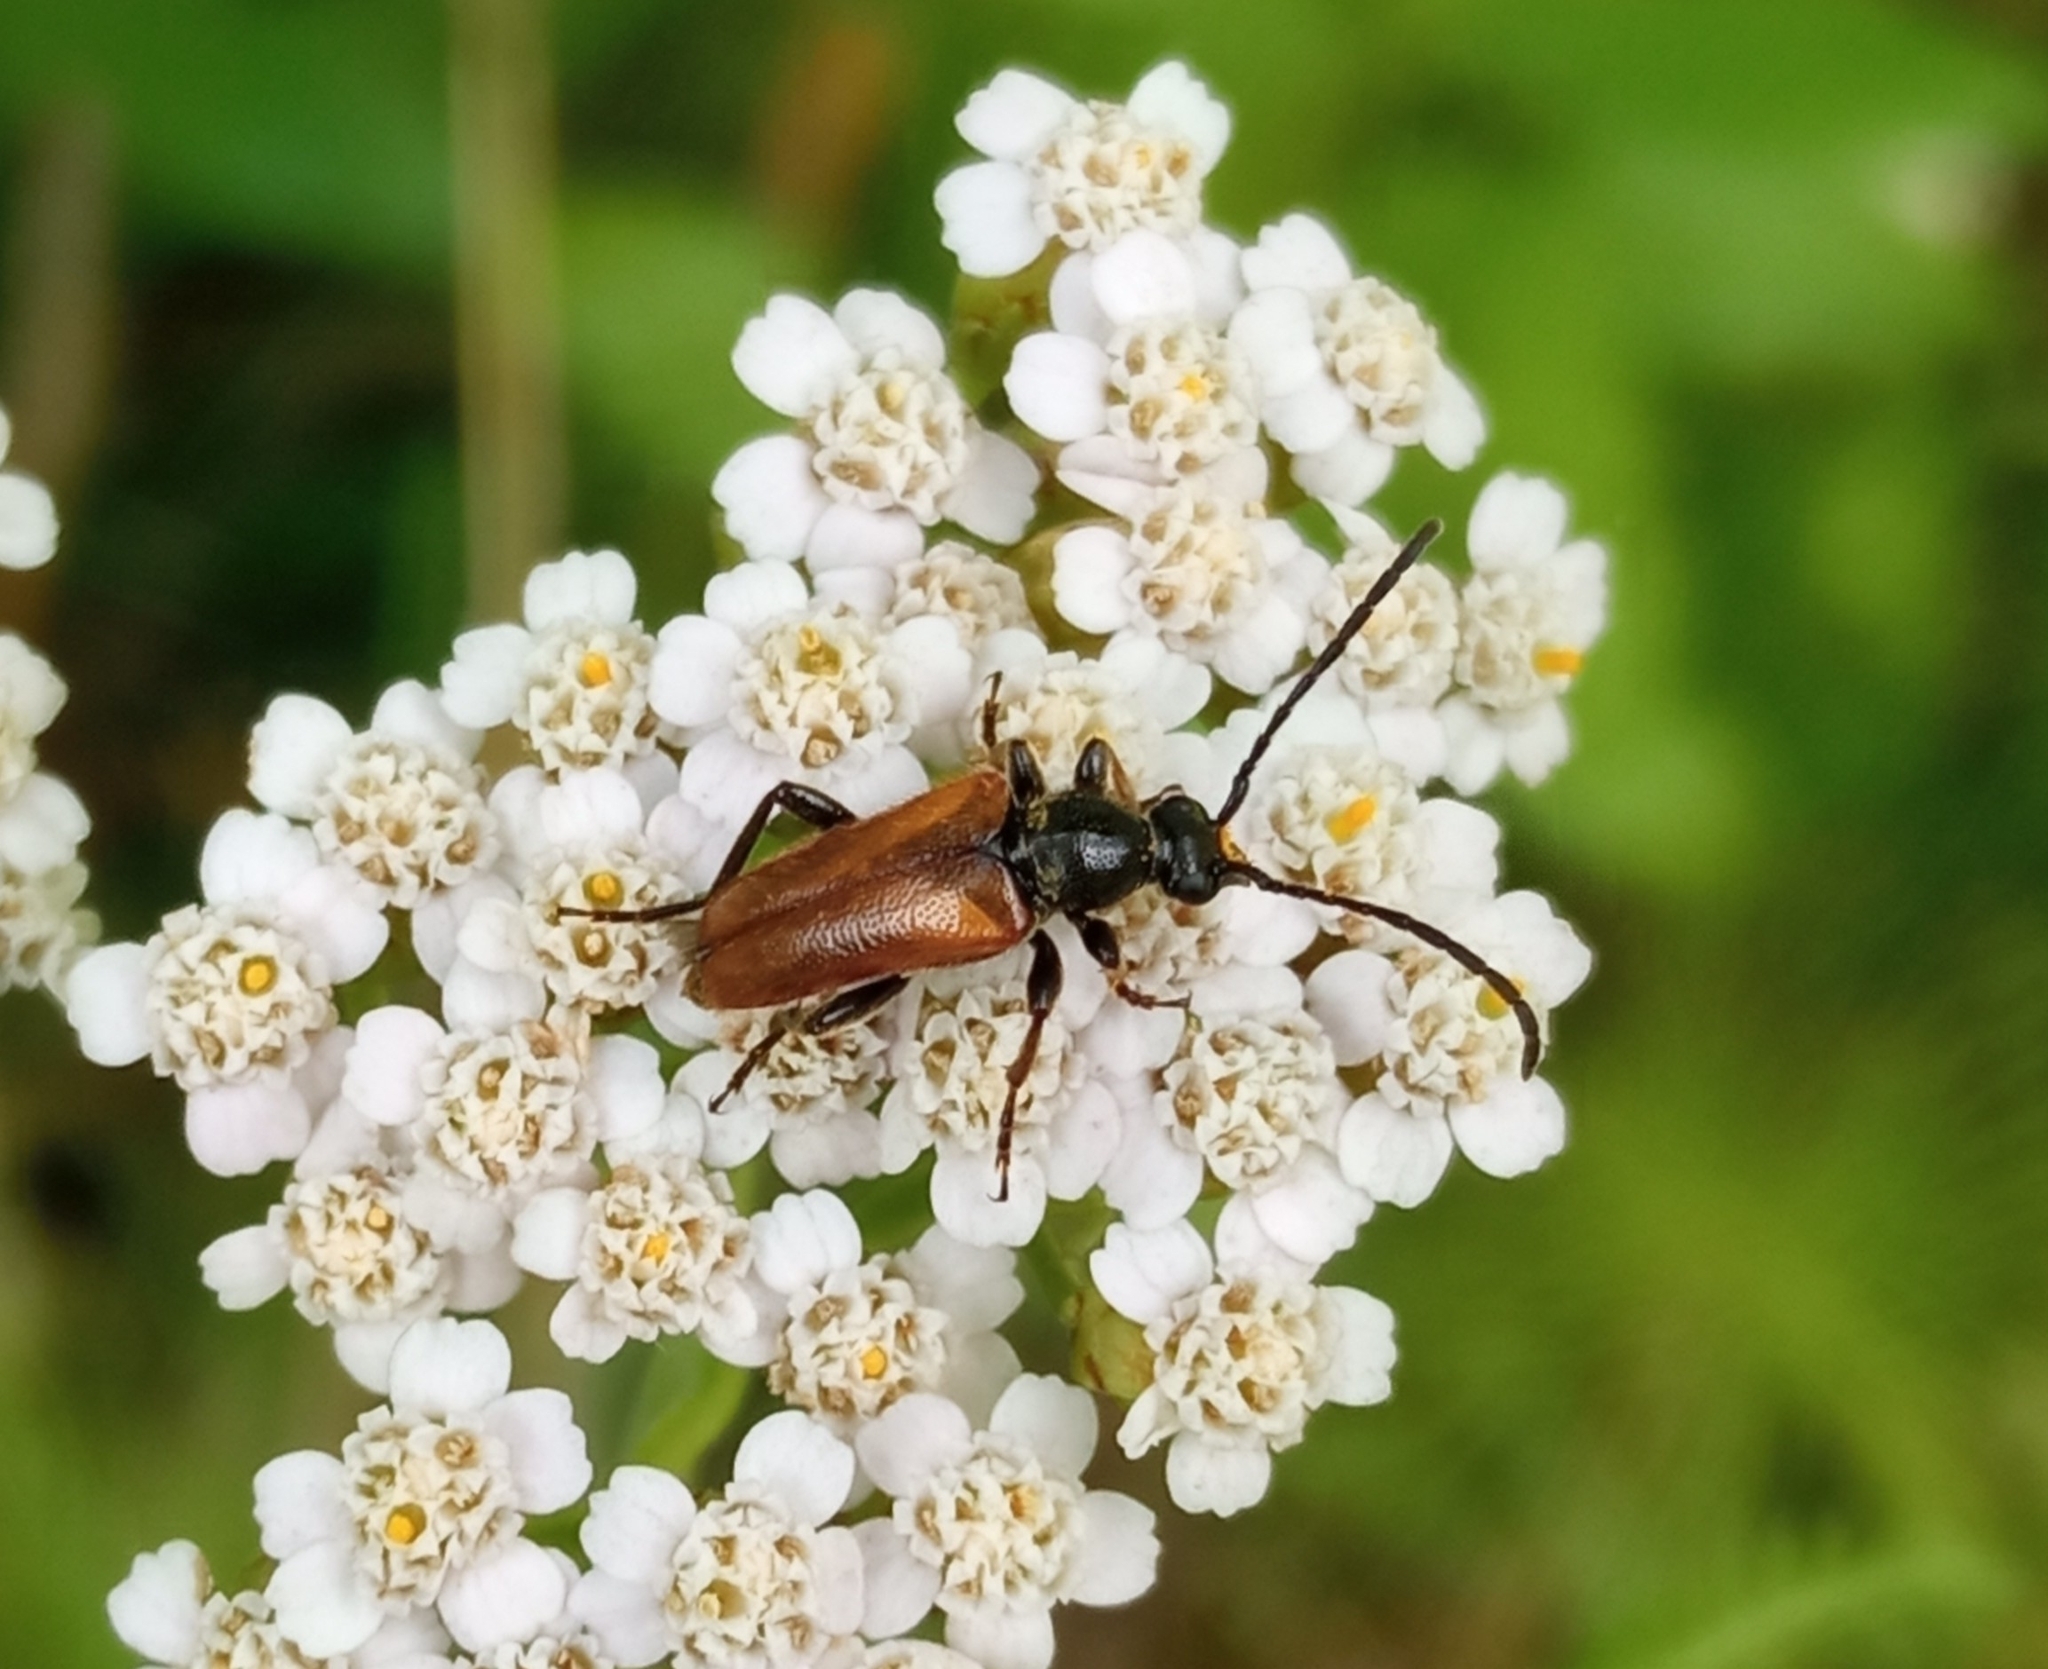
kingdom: Animalia
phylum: Arthropoda
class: Insecta
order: Coleoptera
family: Cerambycidae
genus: Pseudovadonia
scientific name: Pseudovadonia livida
